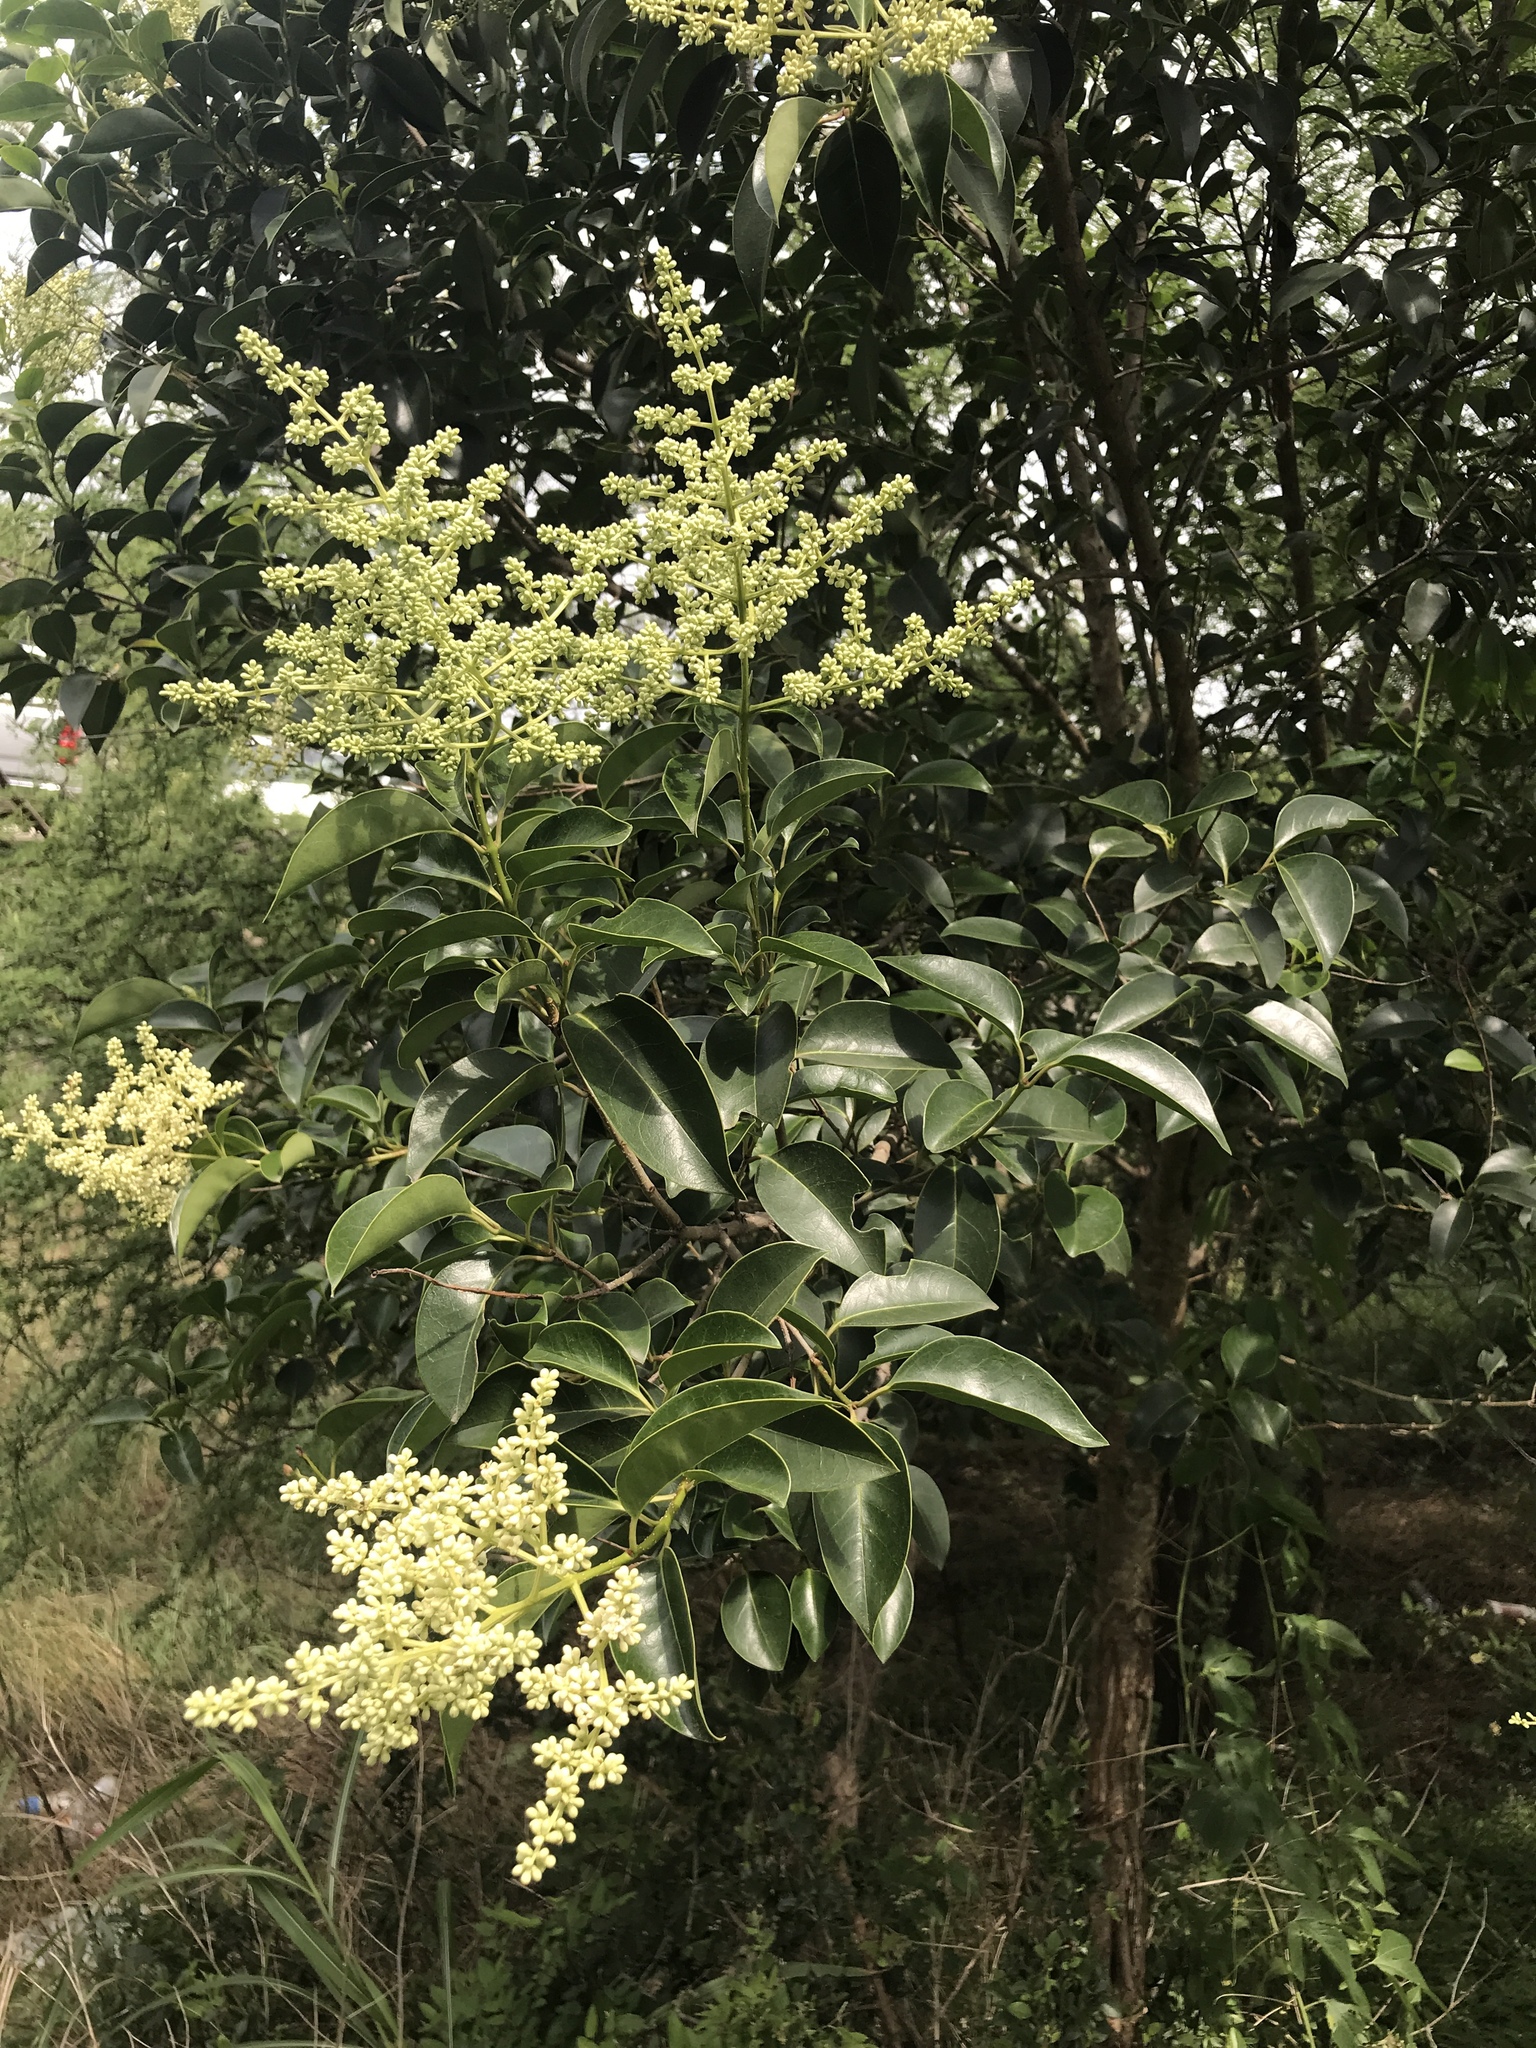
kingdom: Plantae
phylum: Tracheophyta
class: Magnoliopsida
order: Lamiales
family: Oleaceae
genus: Ligustrum
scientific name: Ligustrum lucidum
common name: Glossy privet
